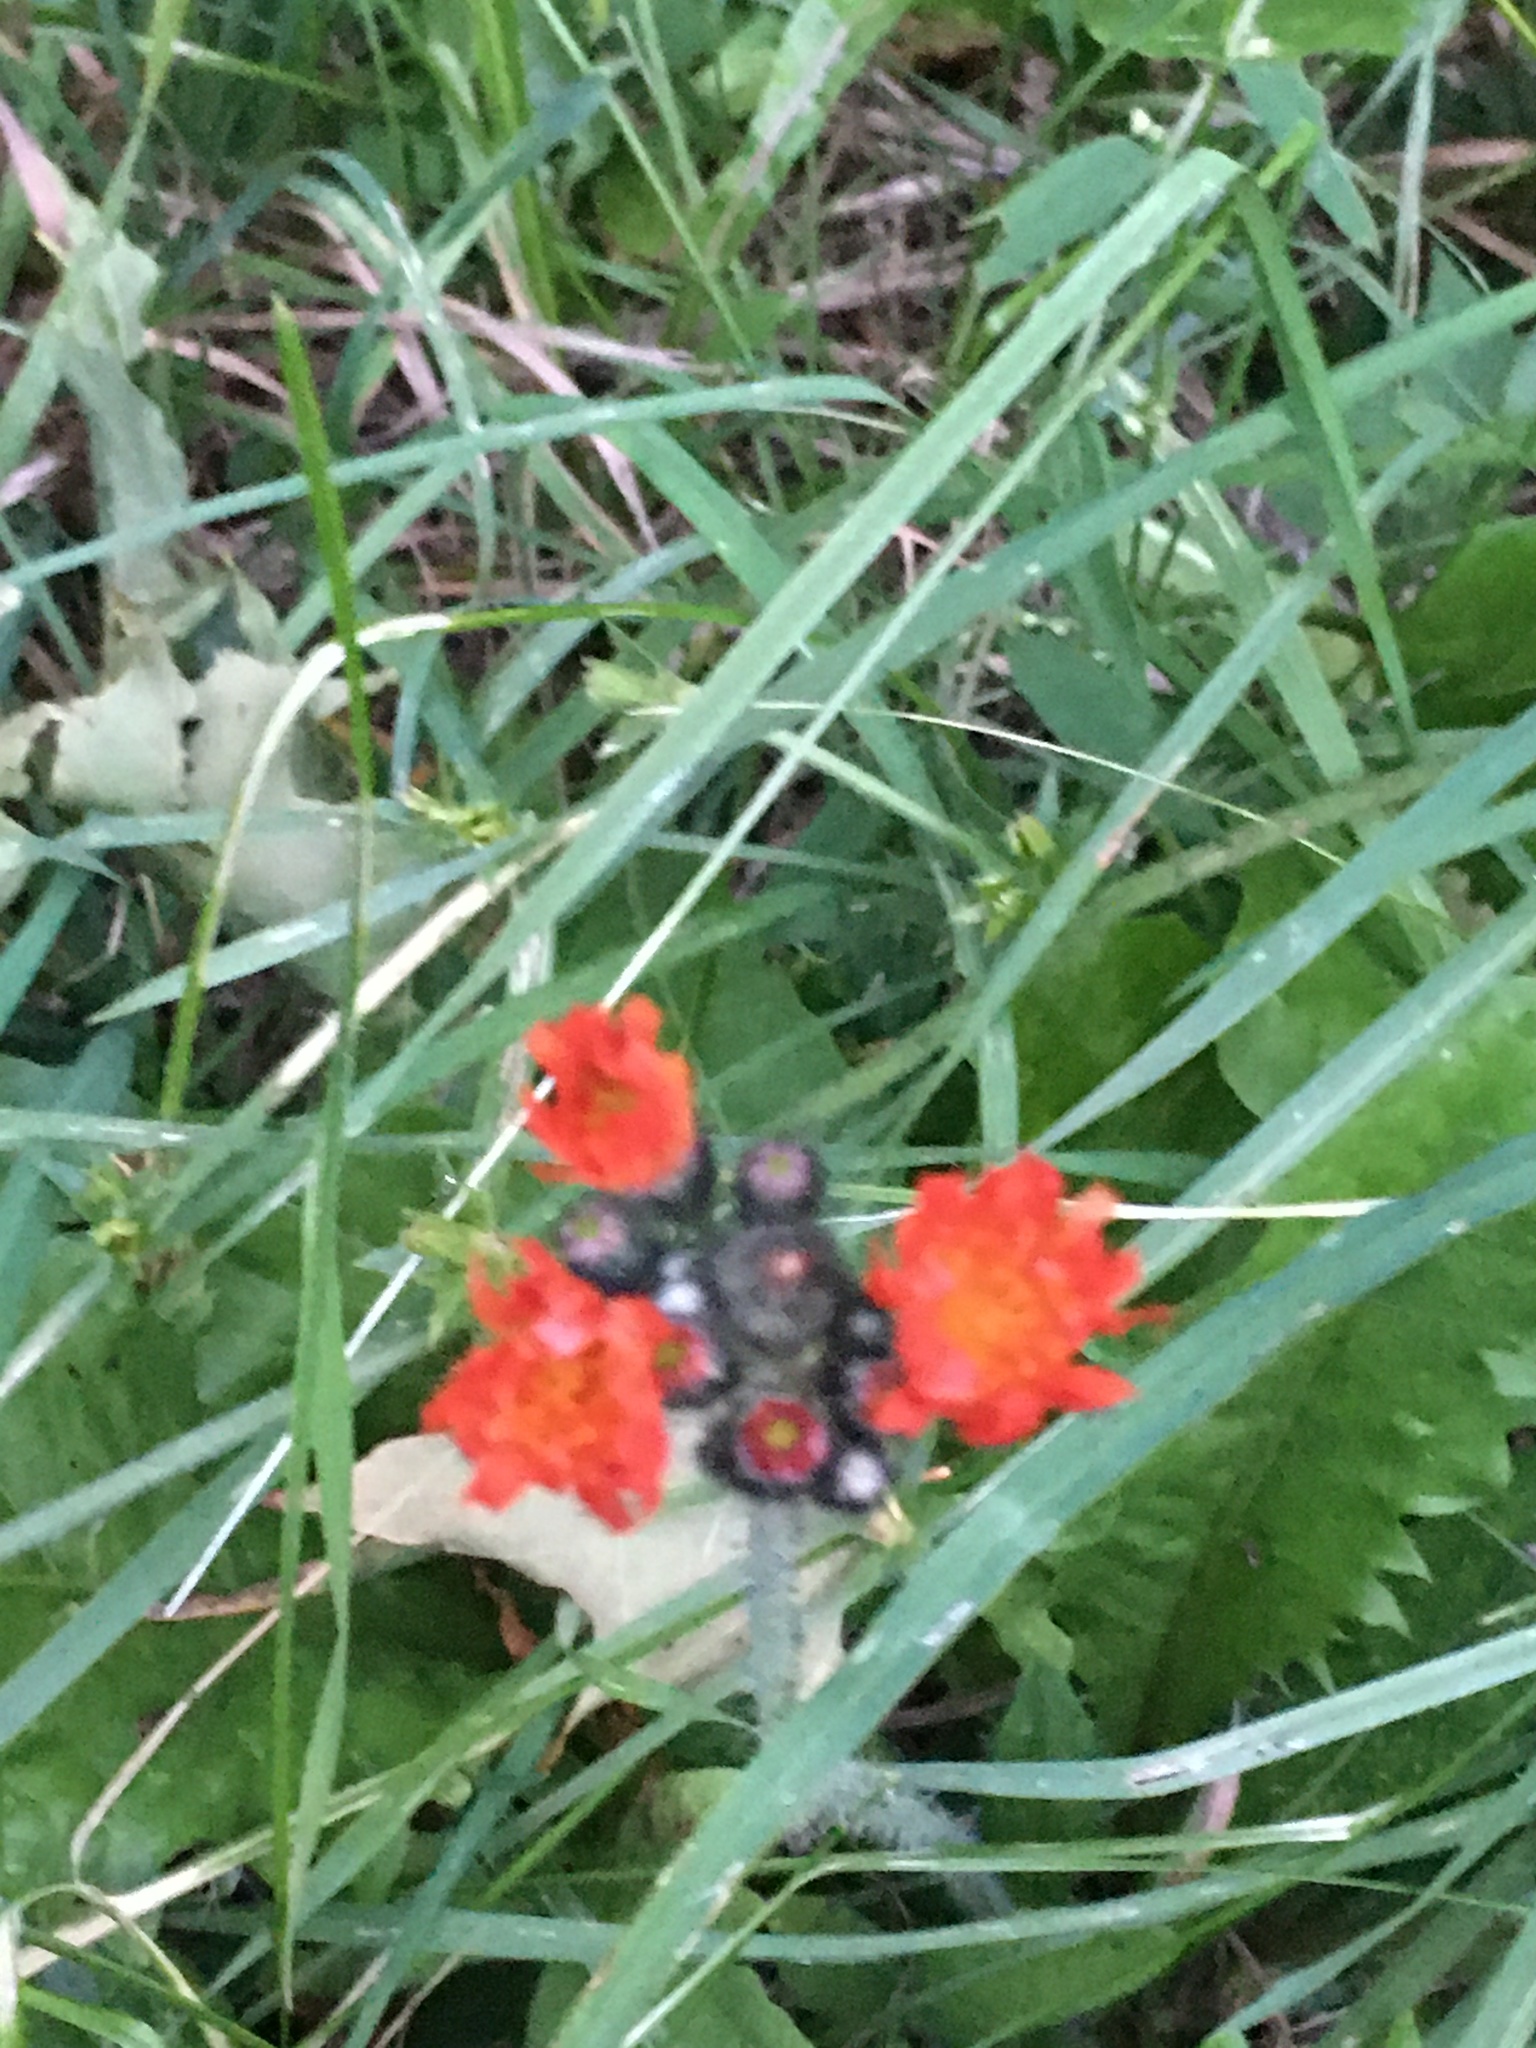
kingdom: Plantae
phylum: Tracheophyta
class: Magnoliopsida
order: Asterales
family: Asteraceae
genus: Pilosella
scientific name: Pilosella aurantiaca
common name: Fox-and-cubs
